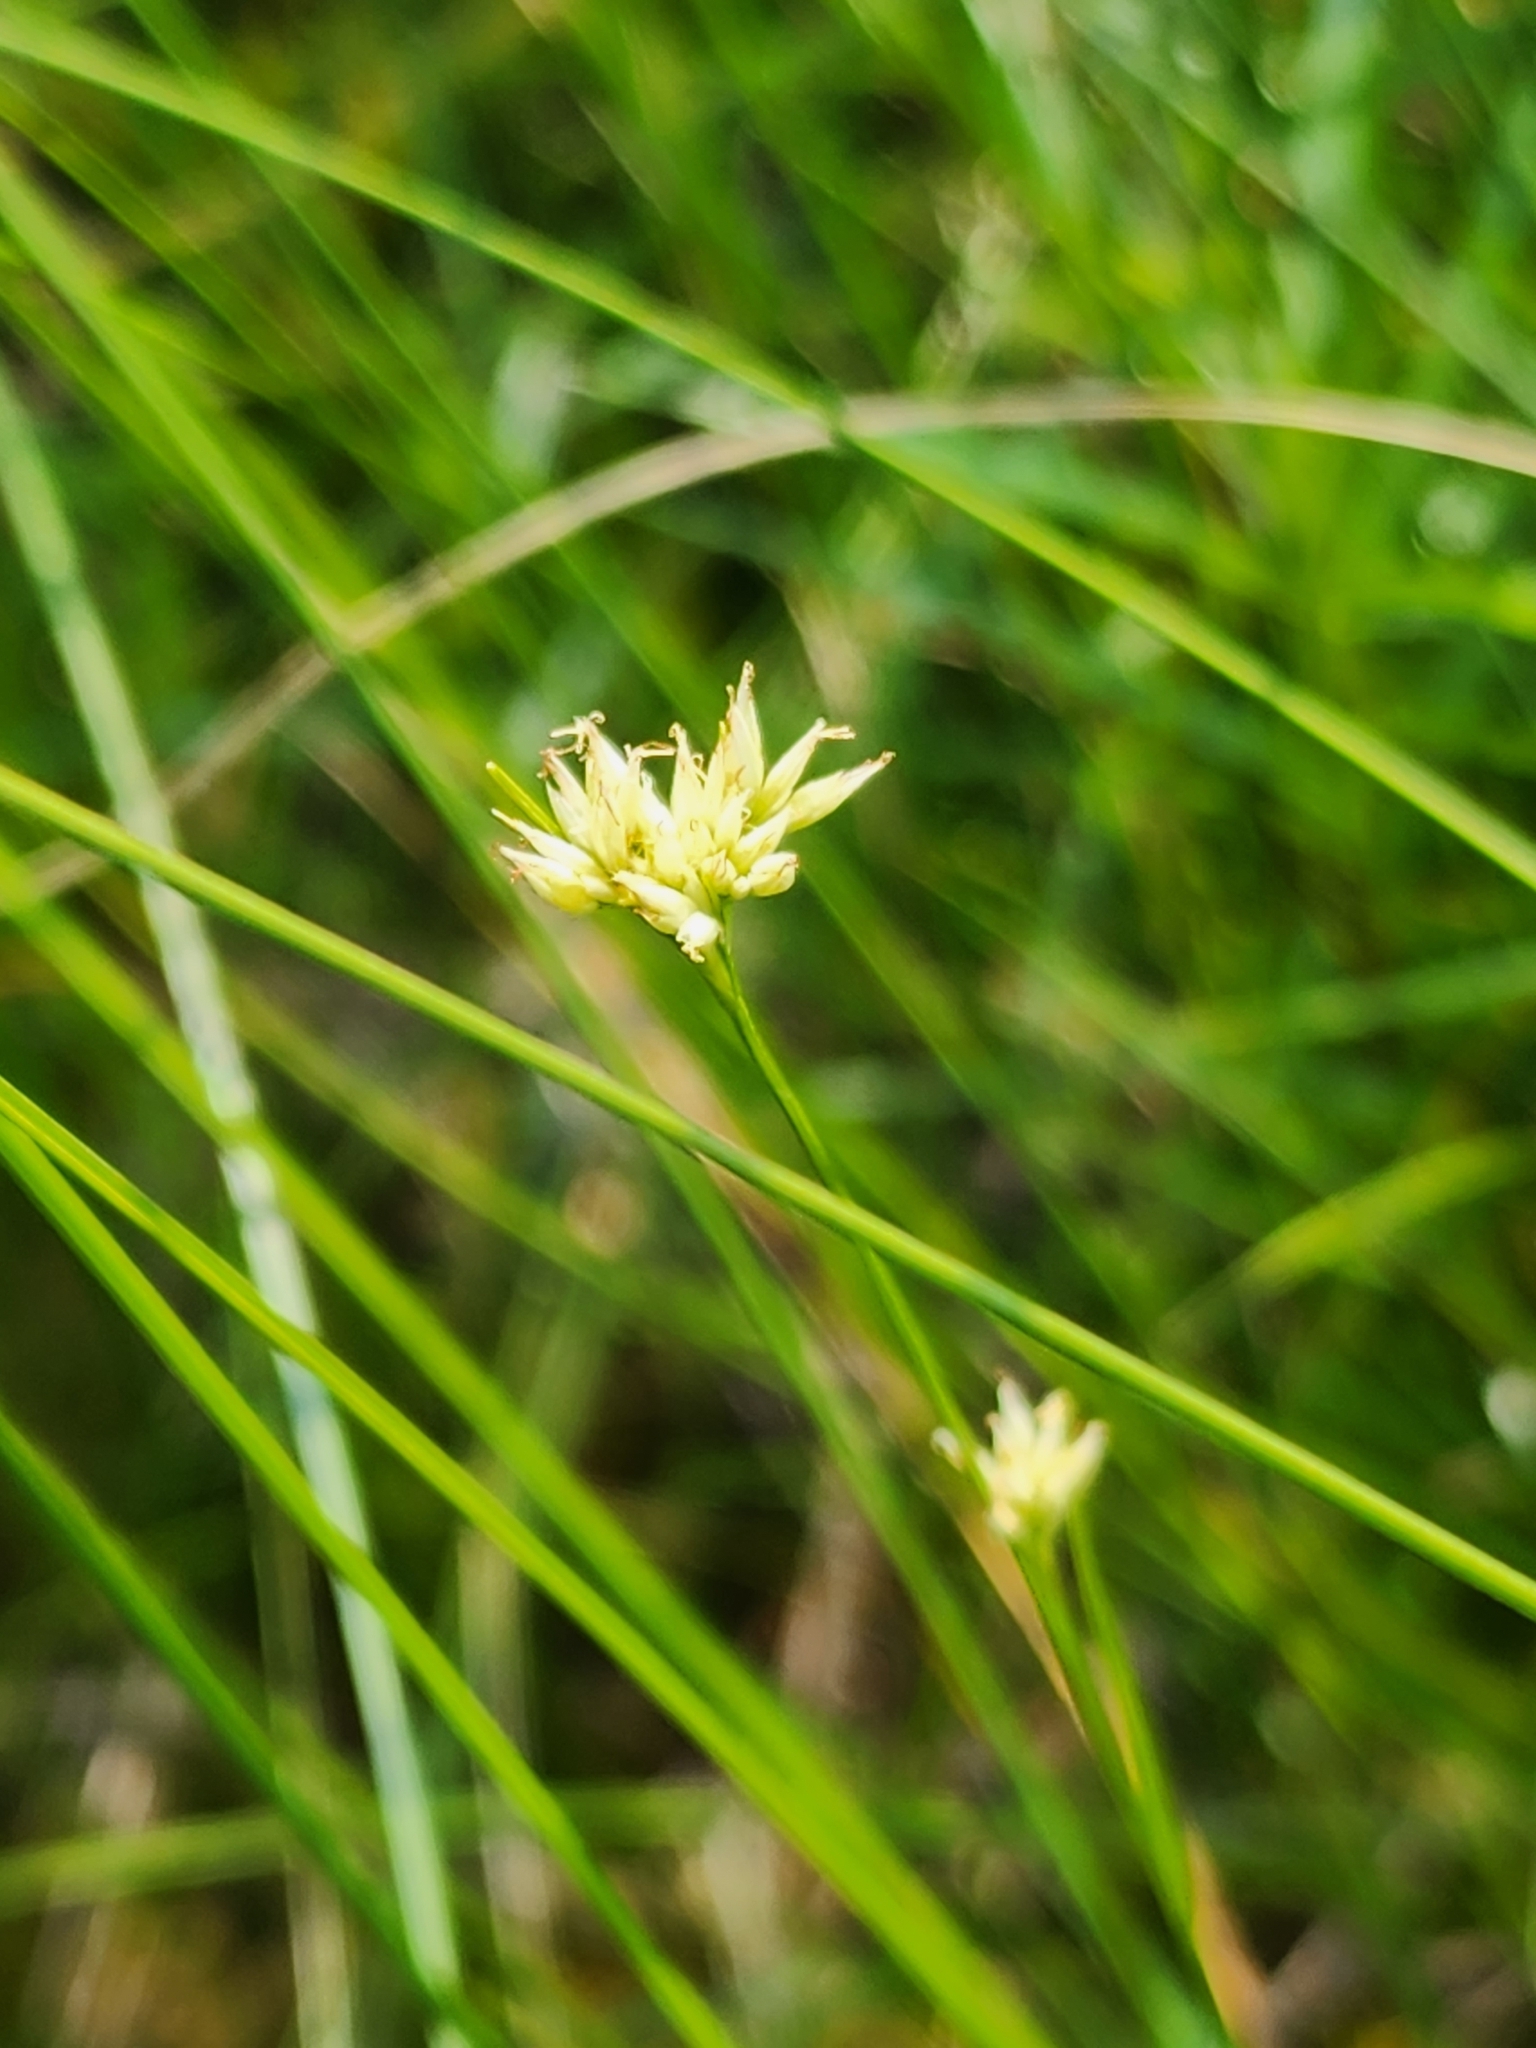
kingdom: Plantae
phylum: Tracheophyta
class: Liliopsida
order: Poales
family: Cyperaceae
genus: Rhynchospora
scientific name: Rhynchospora alba
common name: White beak-sedge
